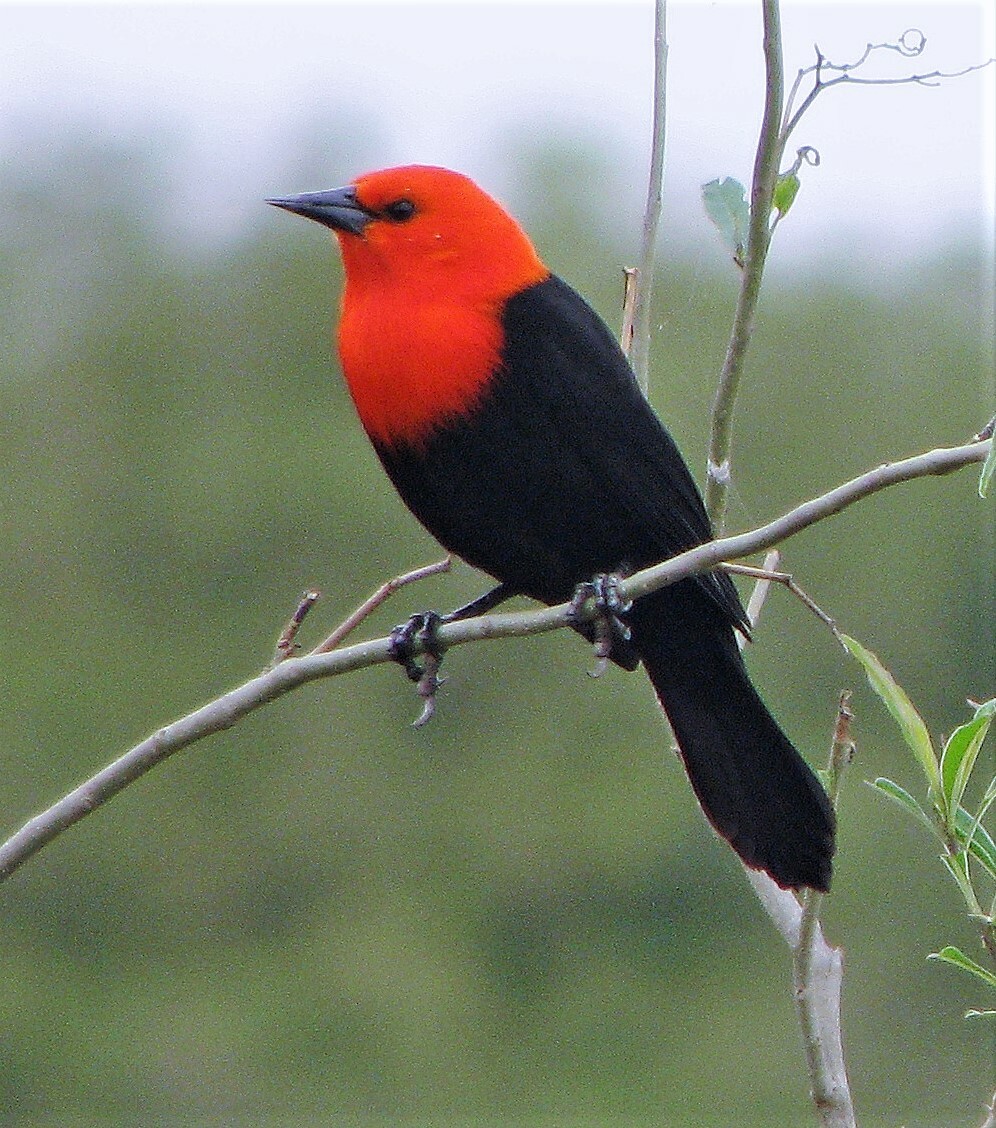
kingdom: Animalia
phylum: Chordata
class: Aves
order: Passeriformes
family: Icteridae
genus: Amblyramphus
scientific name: Amblyramphus holosericeus
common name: Scarlet-headed blackbird
